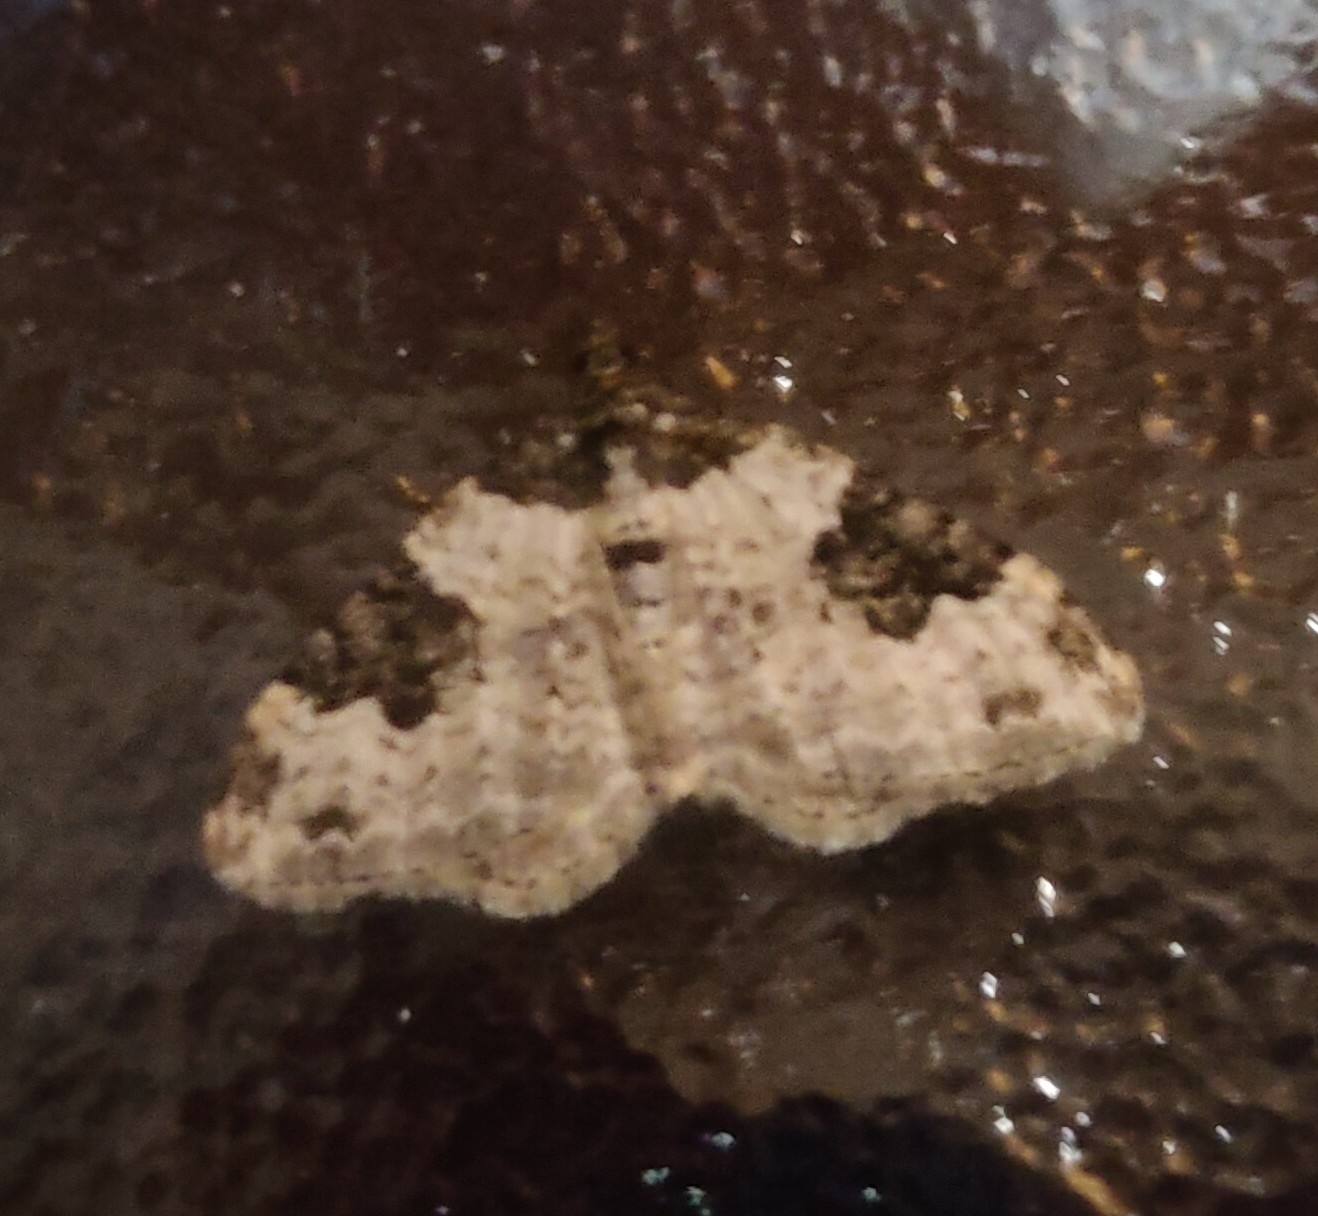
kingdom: Animalia
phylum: Arthropoda
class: Insecta
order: Lepidoptera
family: Geometridae
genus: Xanthorhoe
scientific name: Xanthorhoe fluctuata
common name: Garden carpet
